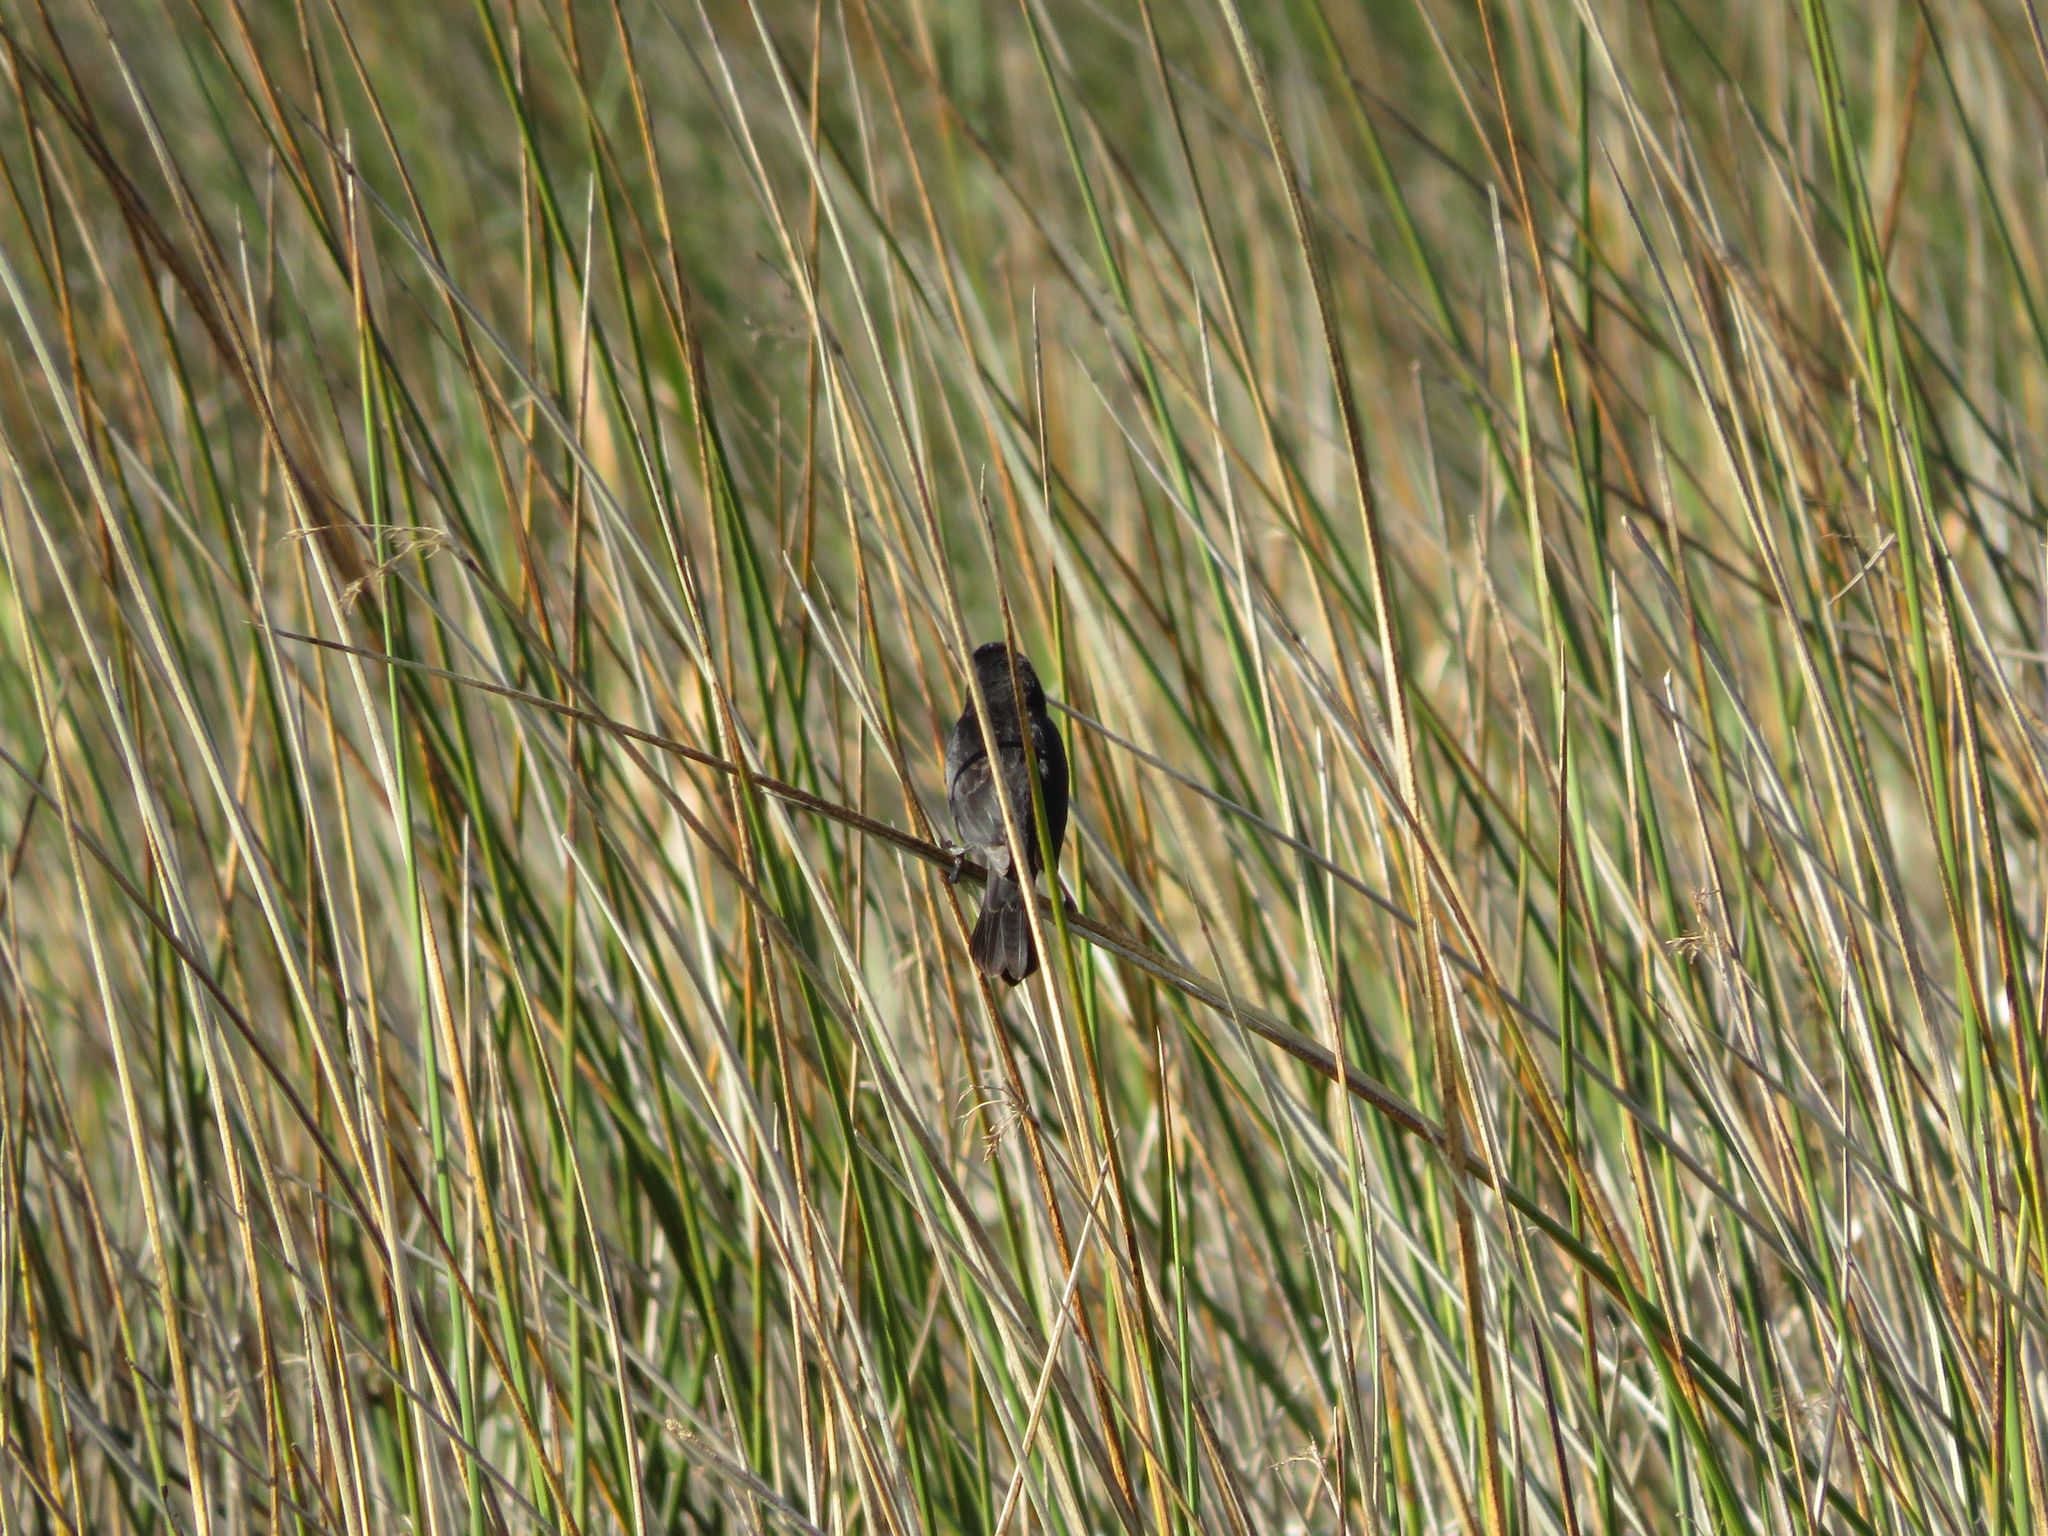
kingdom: Animalia
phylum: Chordata
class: Aves
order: Passeriformes
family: Icteridae
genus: Agelasticus
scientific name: Agelasticus thilius
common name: Yellow-winged blackbird
